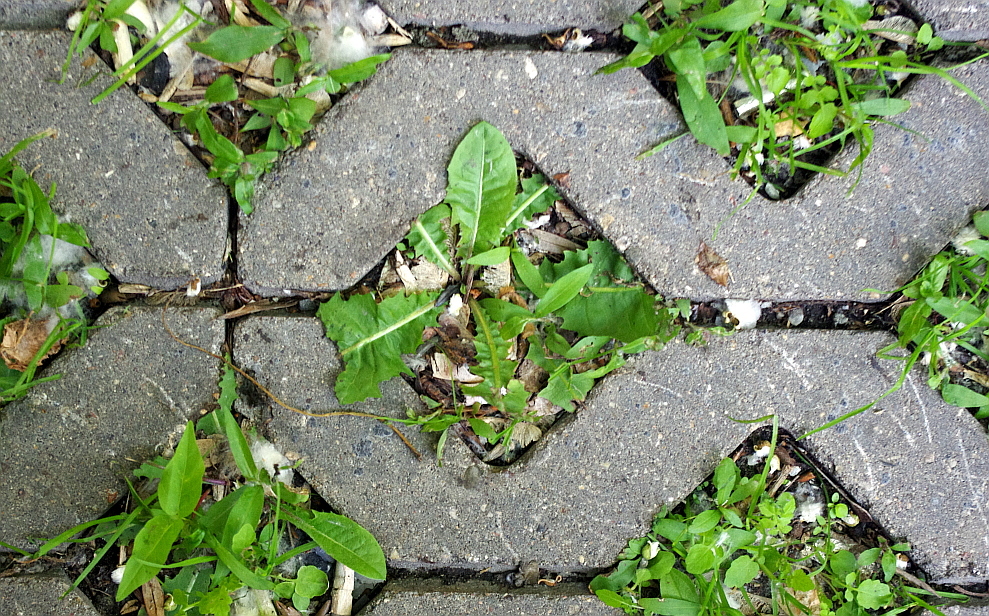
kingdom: Plantae
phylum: Tracheophyta
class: Magnoliopsida
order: Asterales
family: Asteraceae
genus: Taraxacum
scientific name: Taraxacum officinale
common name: Common dandelion
